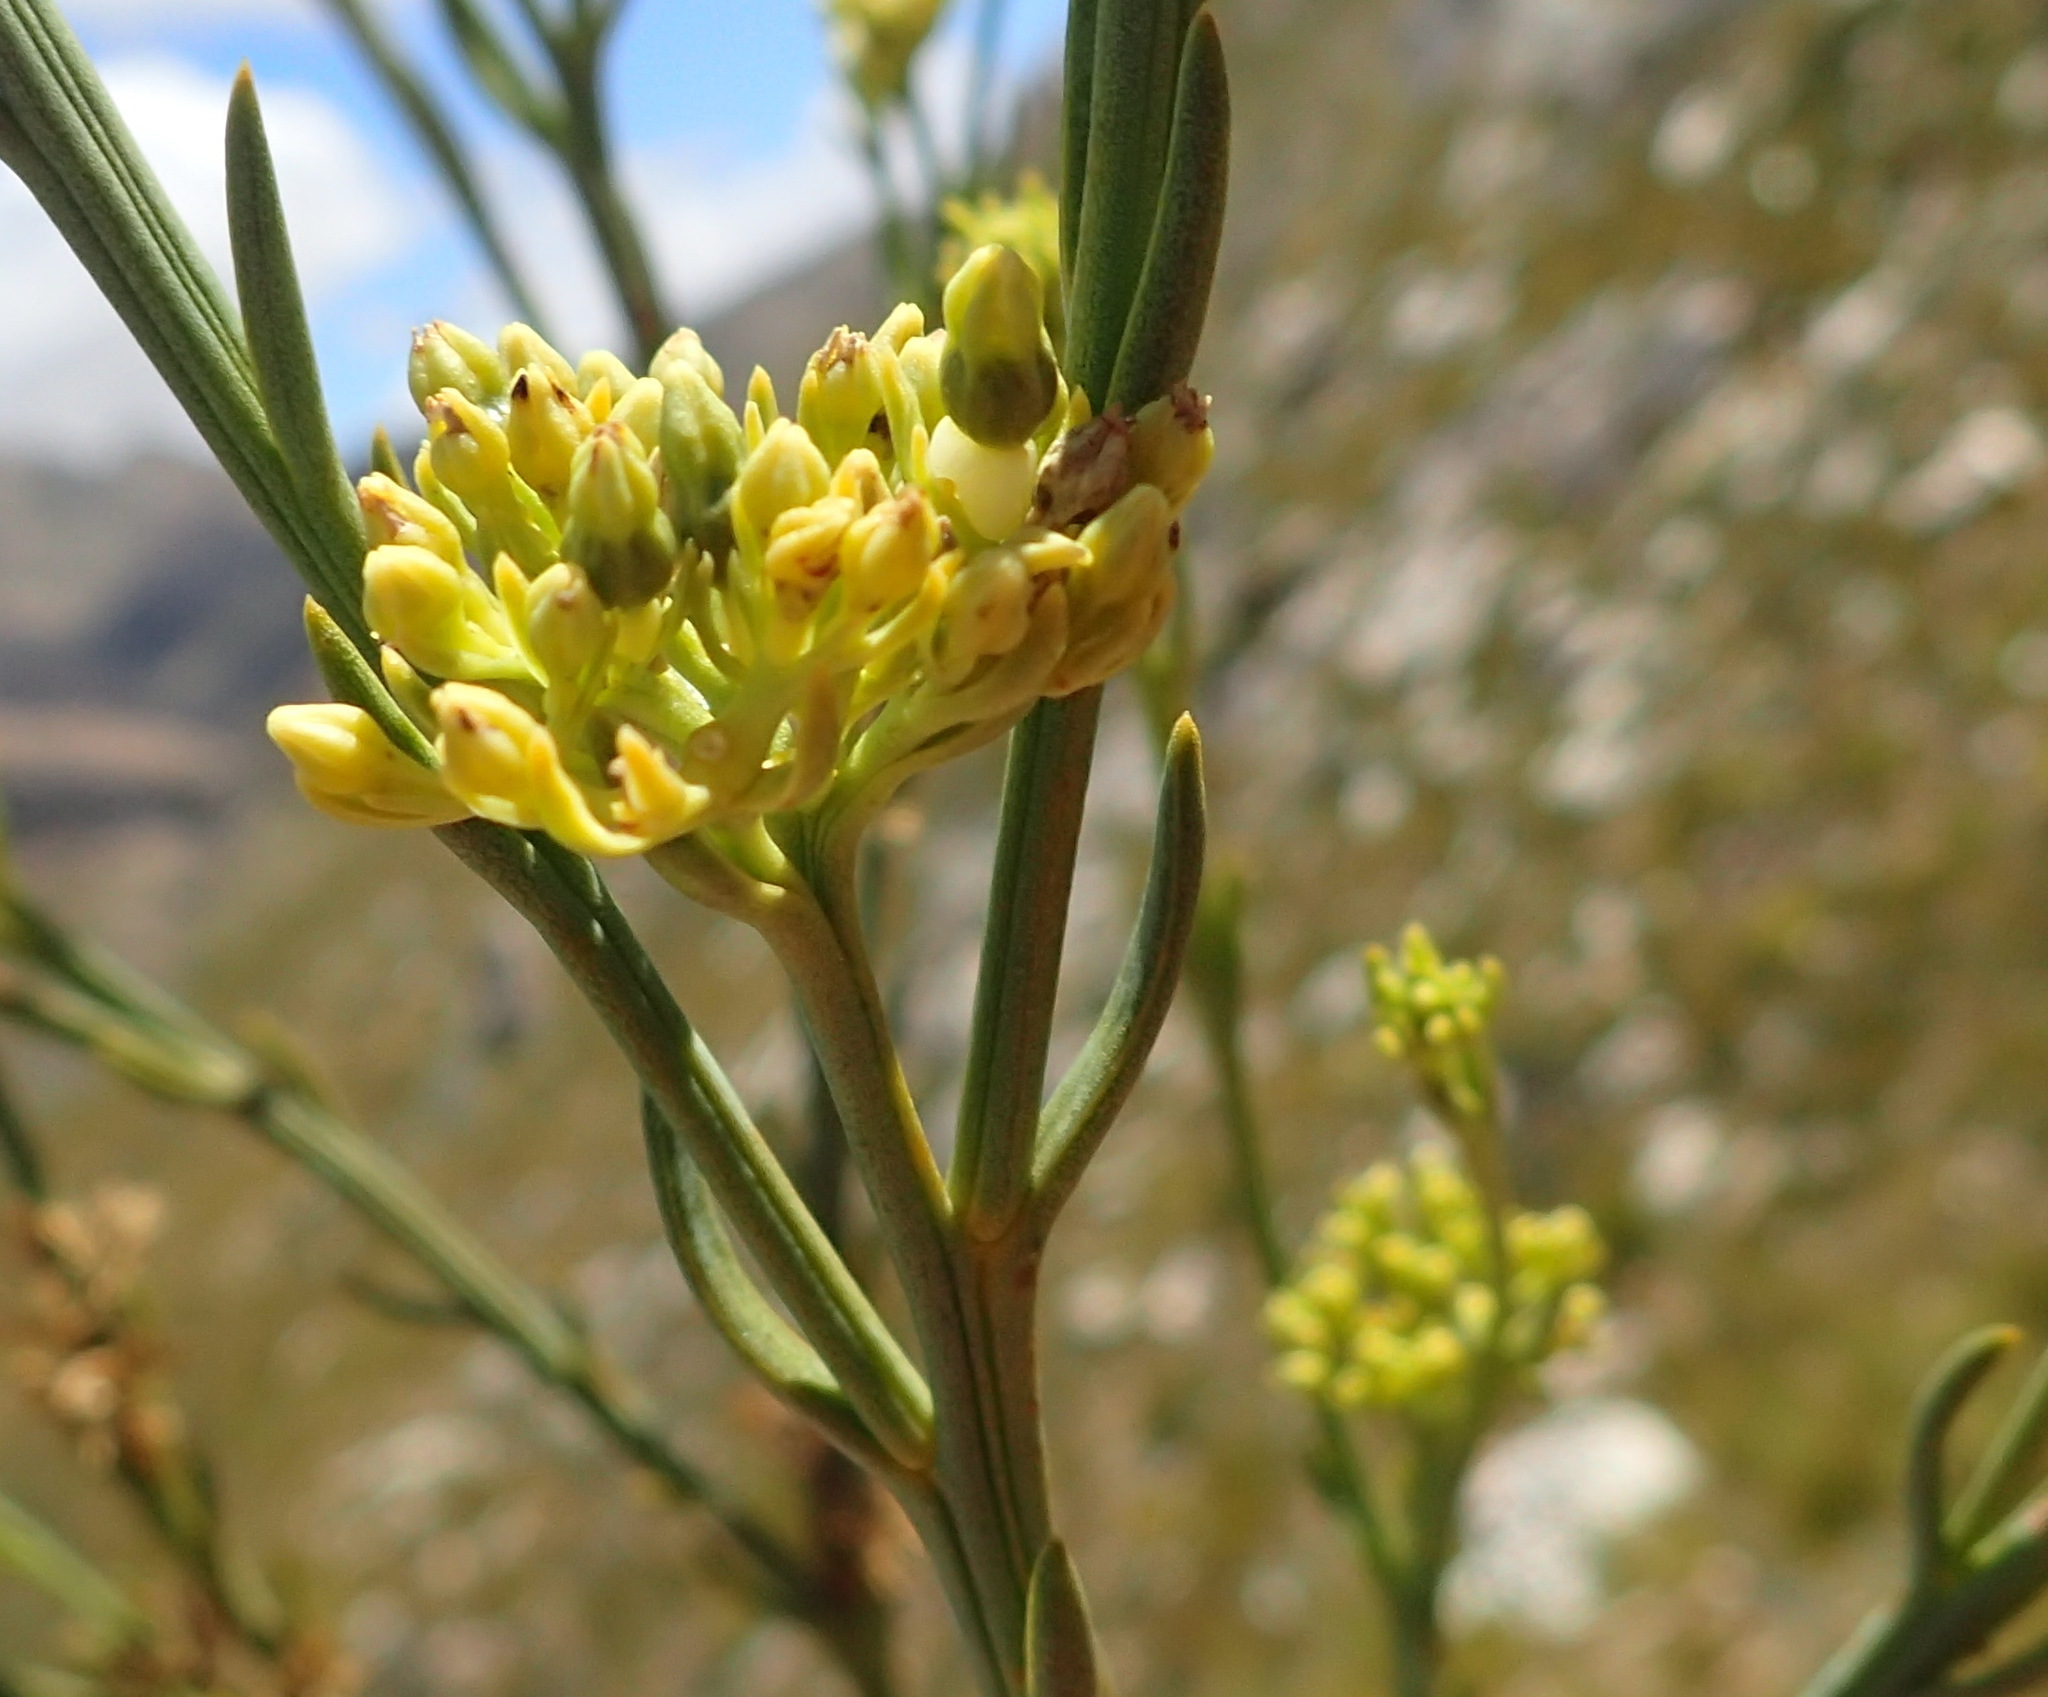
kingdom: Plantae
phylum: Tracheophyta
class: Magnoliopsida
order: Santalales
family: Thesiaceae
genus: Thesium
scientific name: Thesium strictum
